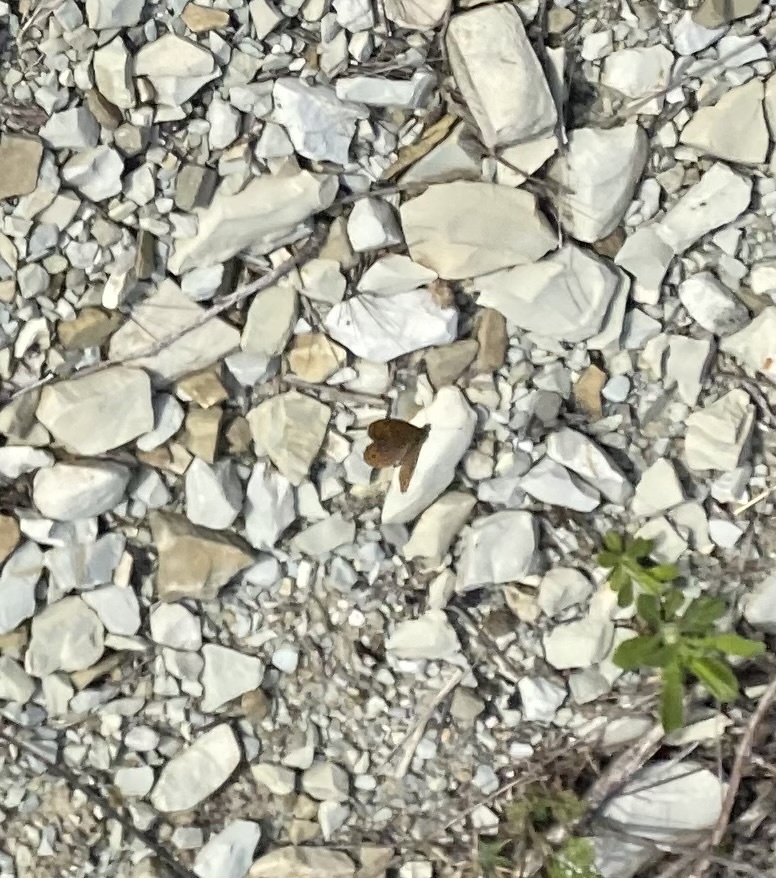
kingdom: Animalia
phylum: Arthropoda
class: Insecta
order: Lepidoptera
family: Nymphalidae
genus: Pararge
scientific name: Pararge Lasiommata megera
